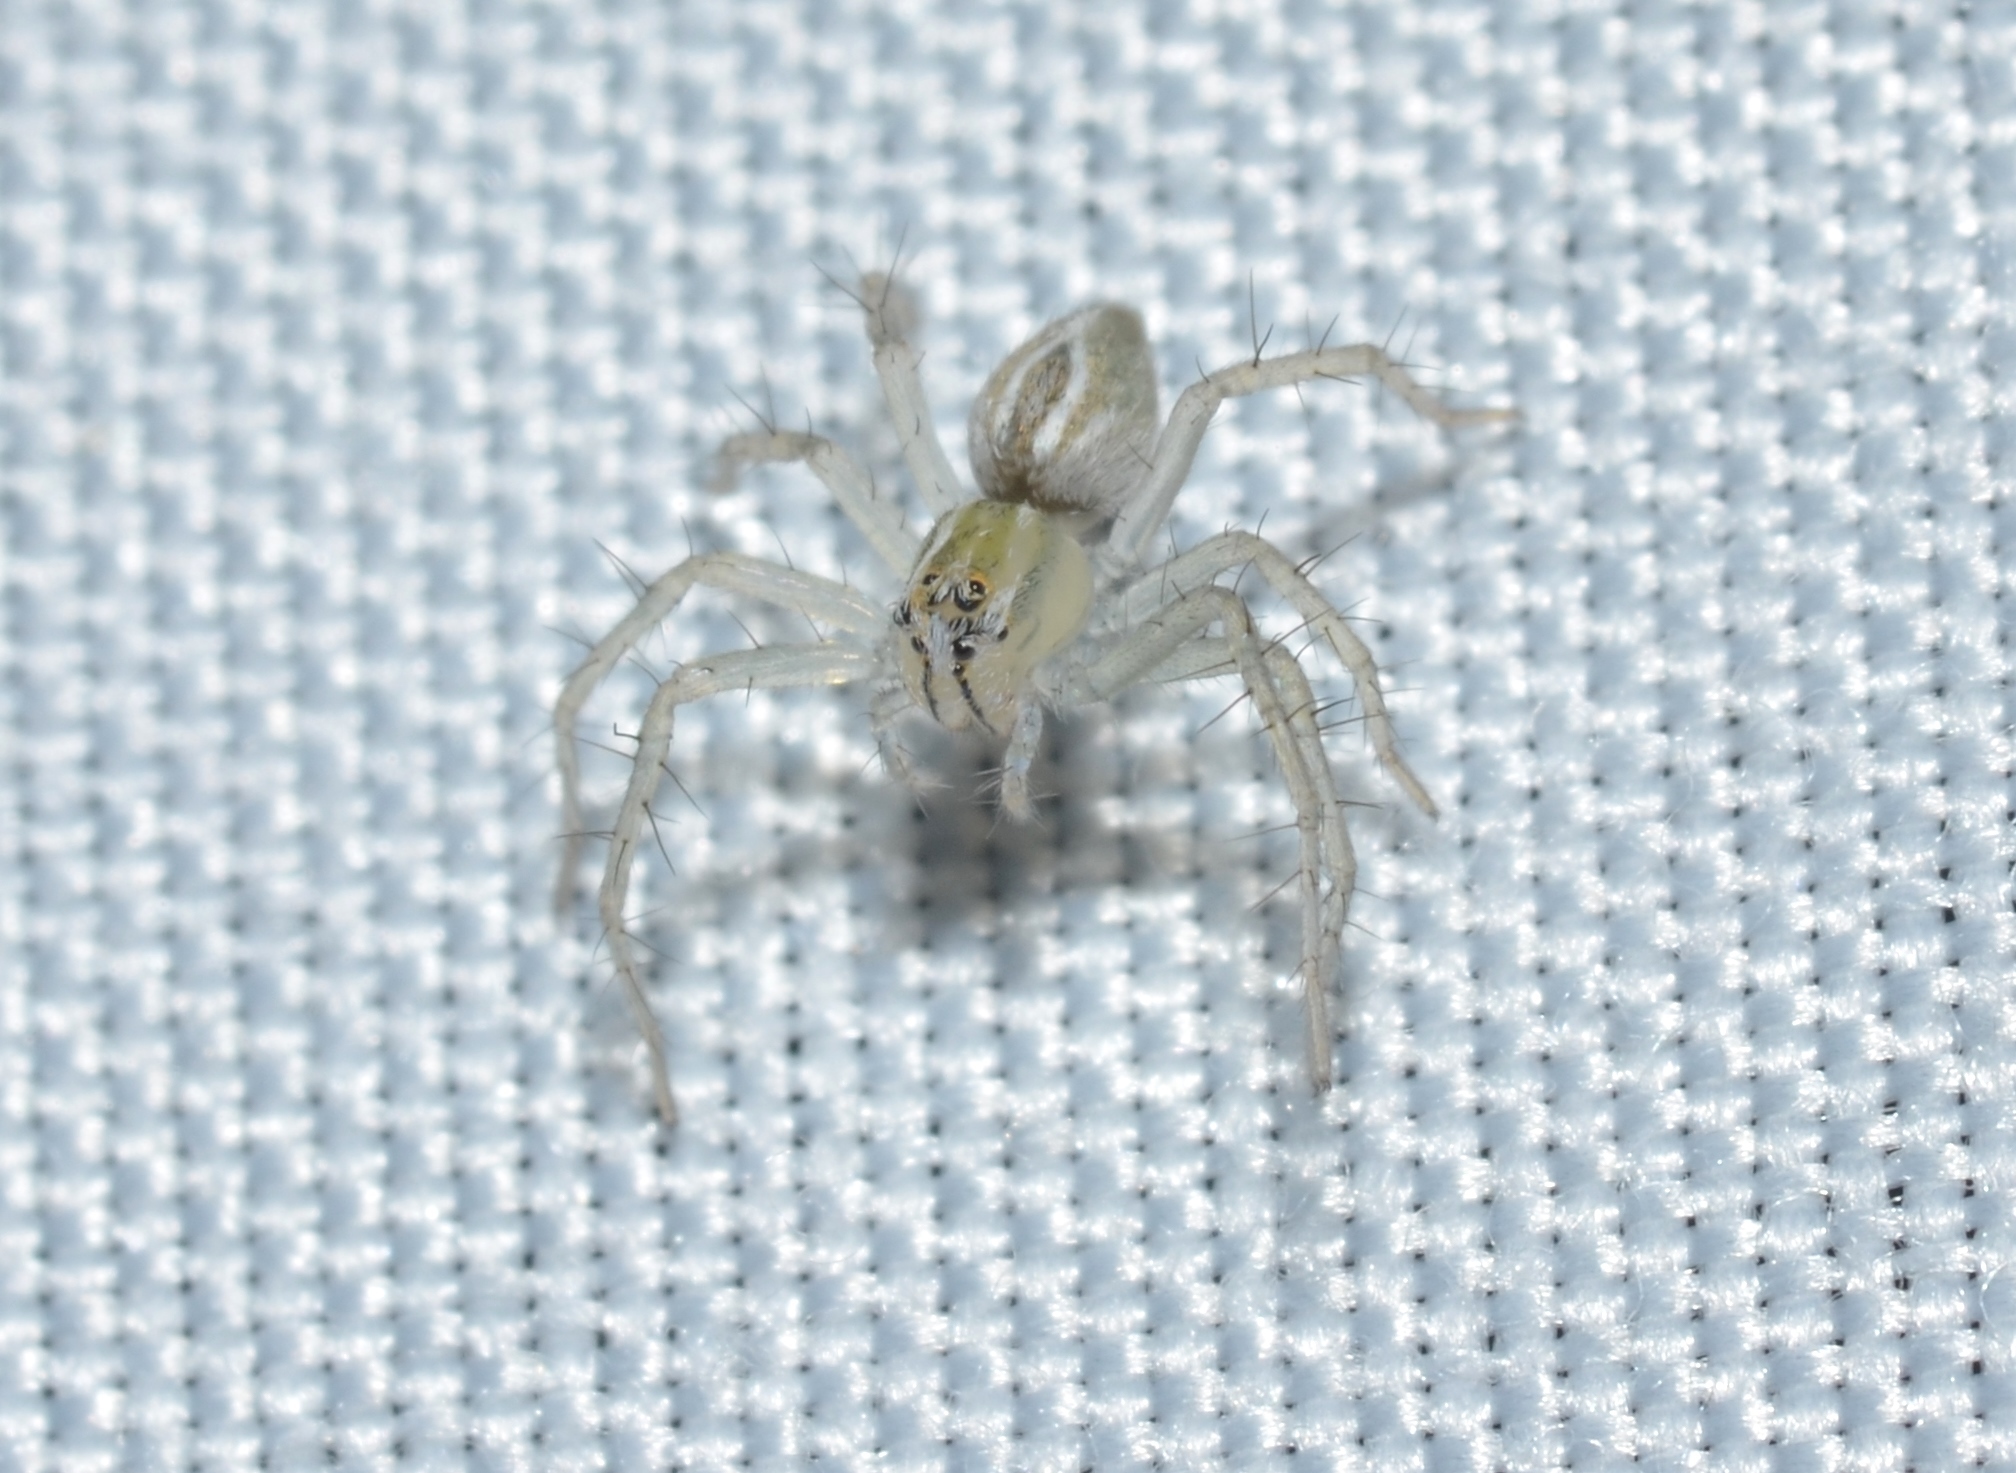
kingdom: Animalia
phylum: Arthropoda
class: Arachnida
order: Araneae
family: Oxyopidae
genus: Oxyopes
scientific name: Oxyopes salticus
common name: Lynx spiders
